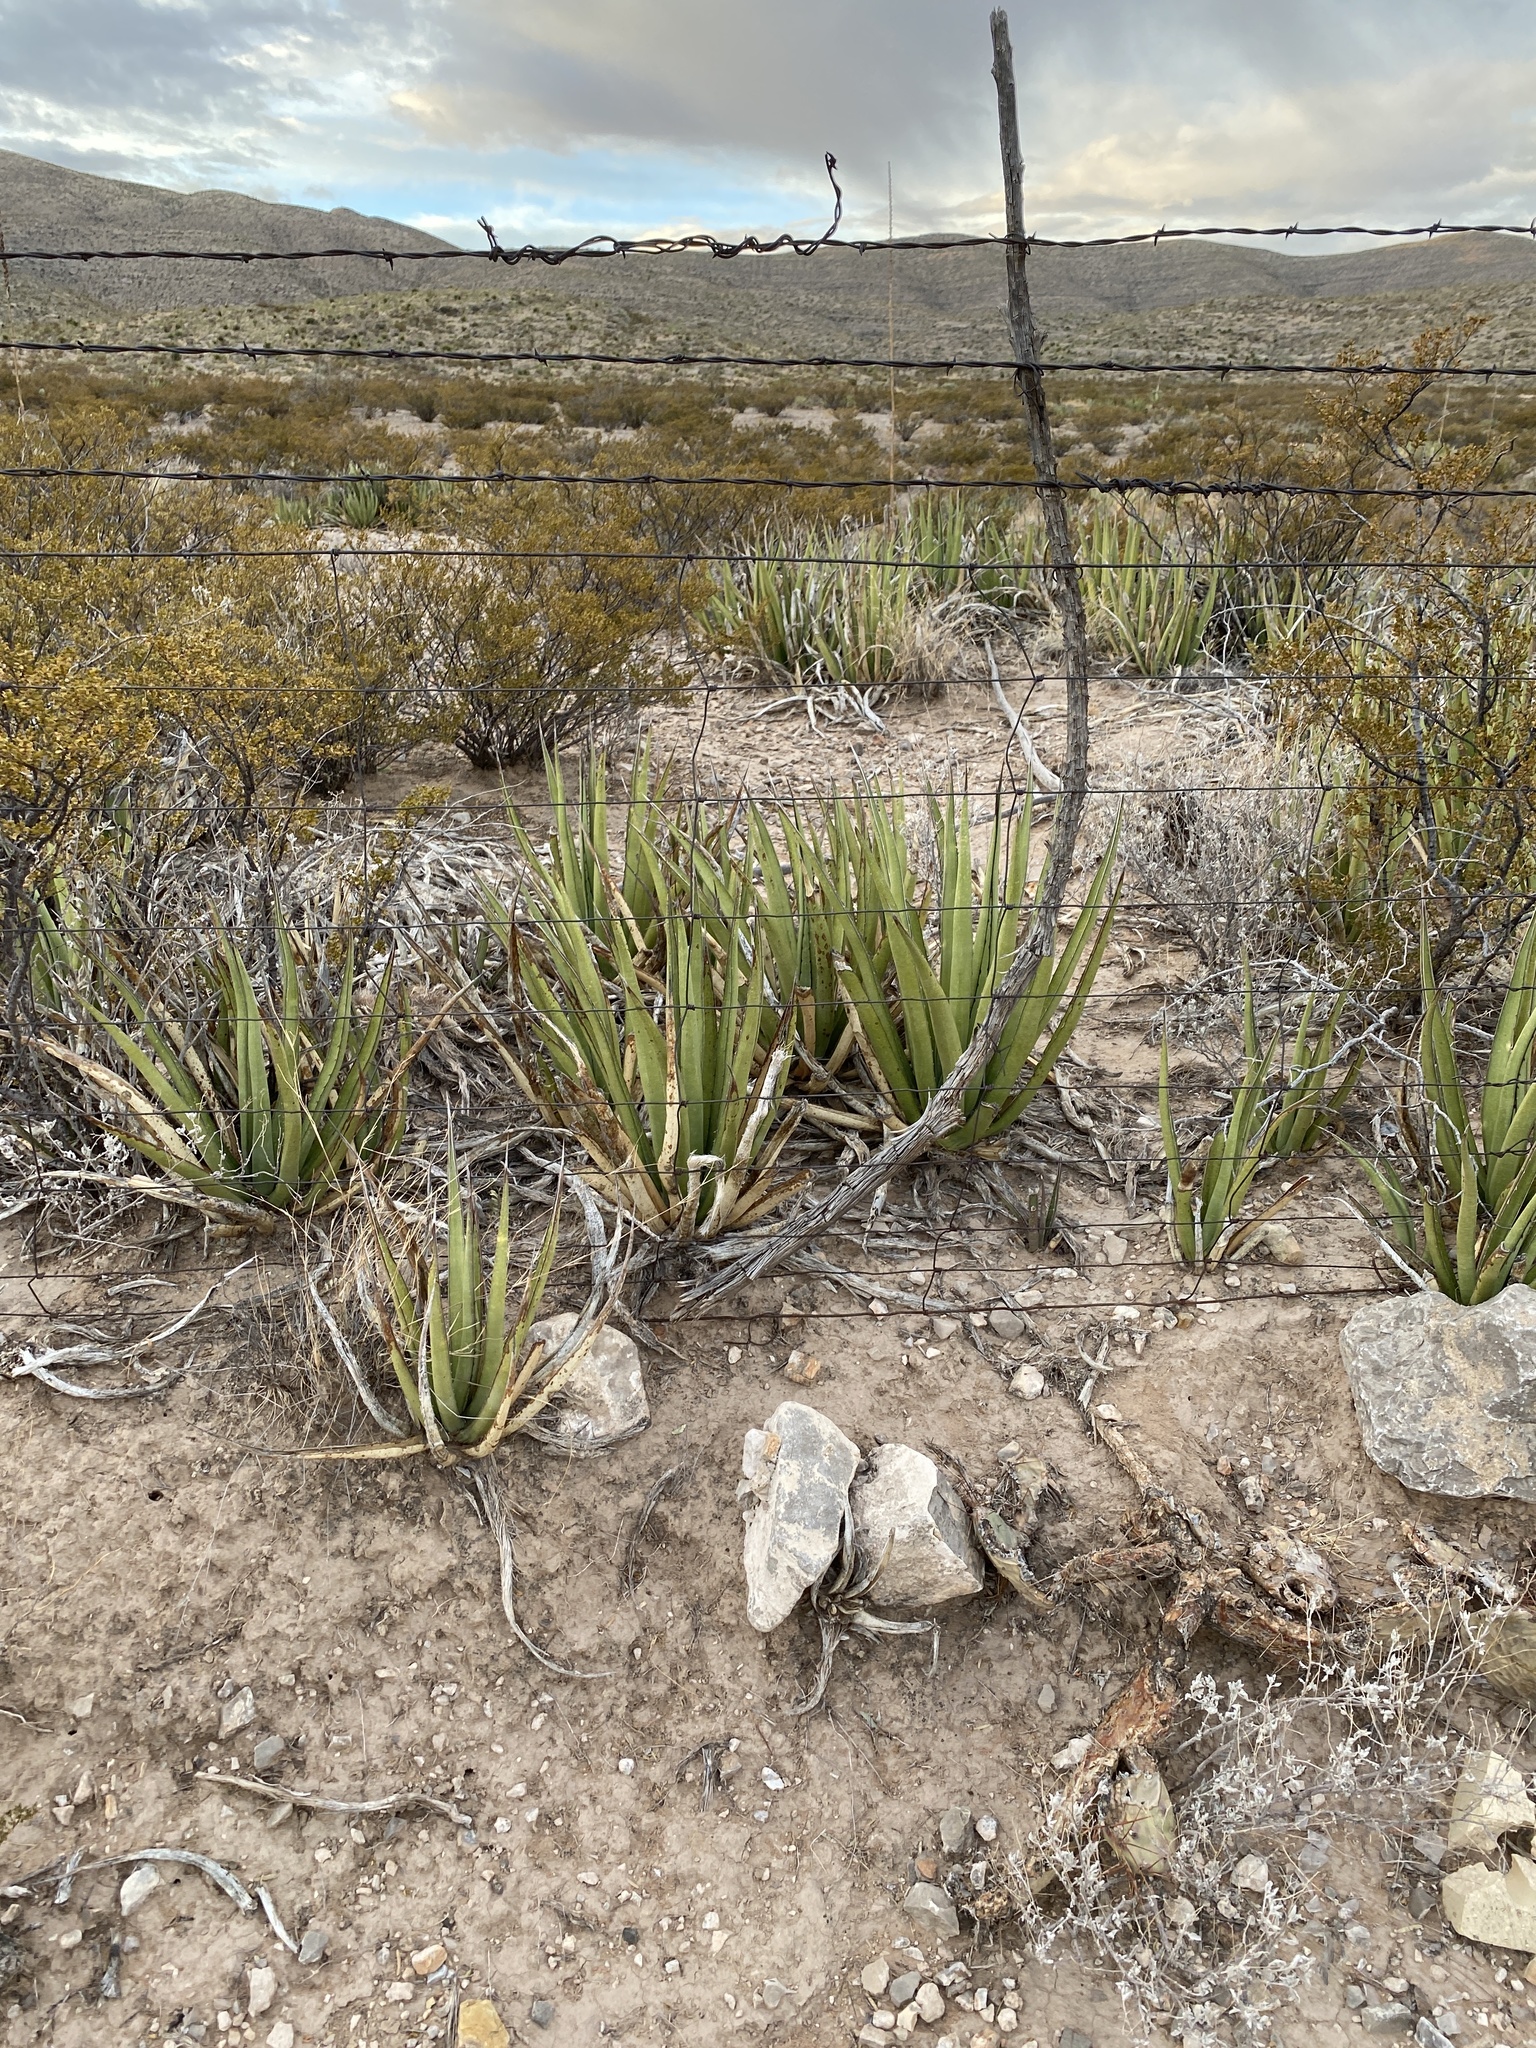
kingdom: Plantae
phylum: Tracheophyta
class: Liliopsida
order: Asparagales
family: Asparagaceae
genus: Agave
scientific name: Agave lechuguilla
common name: Lecheguilla agave
